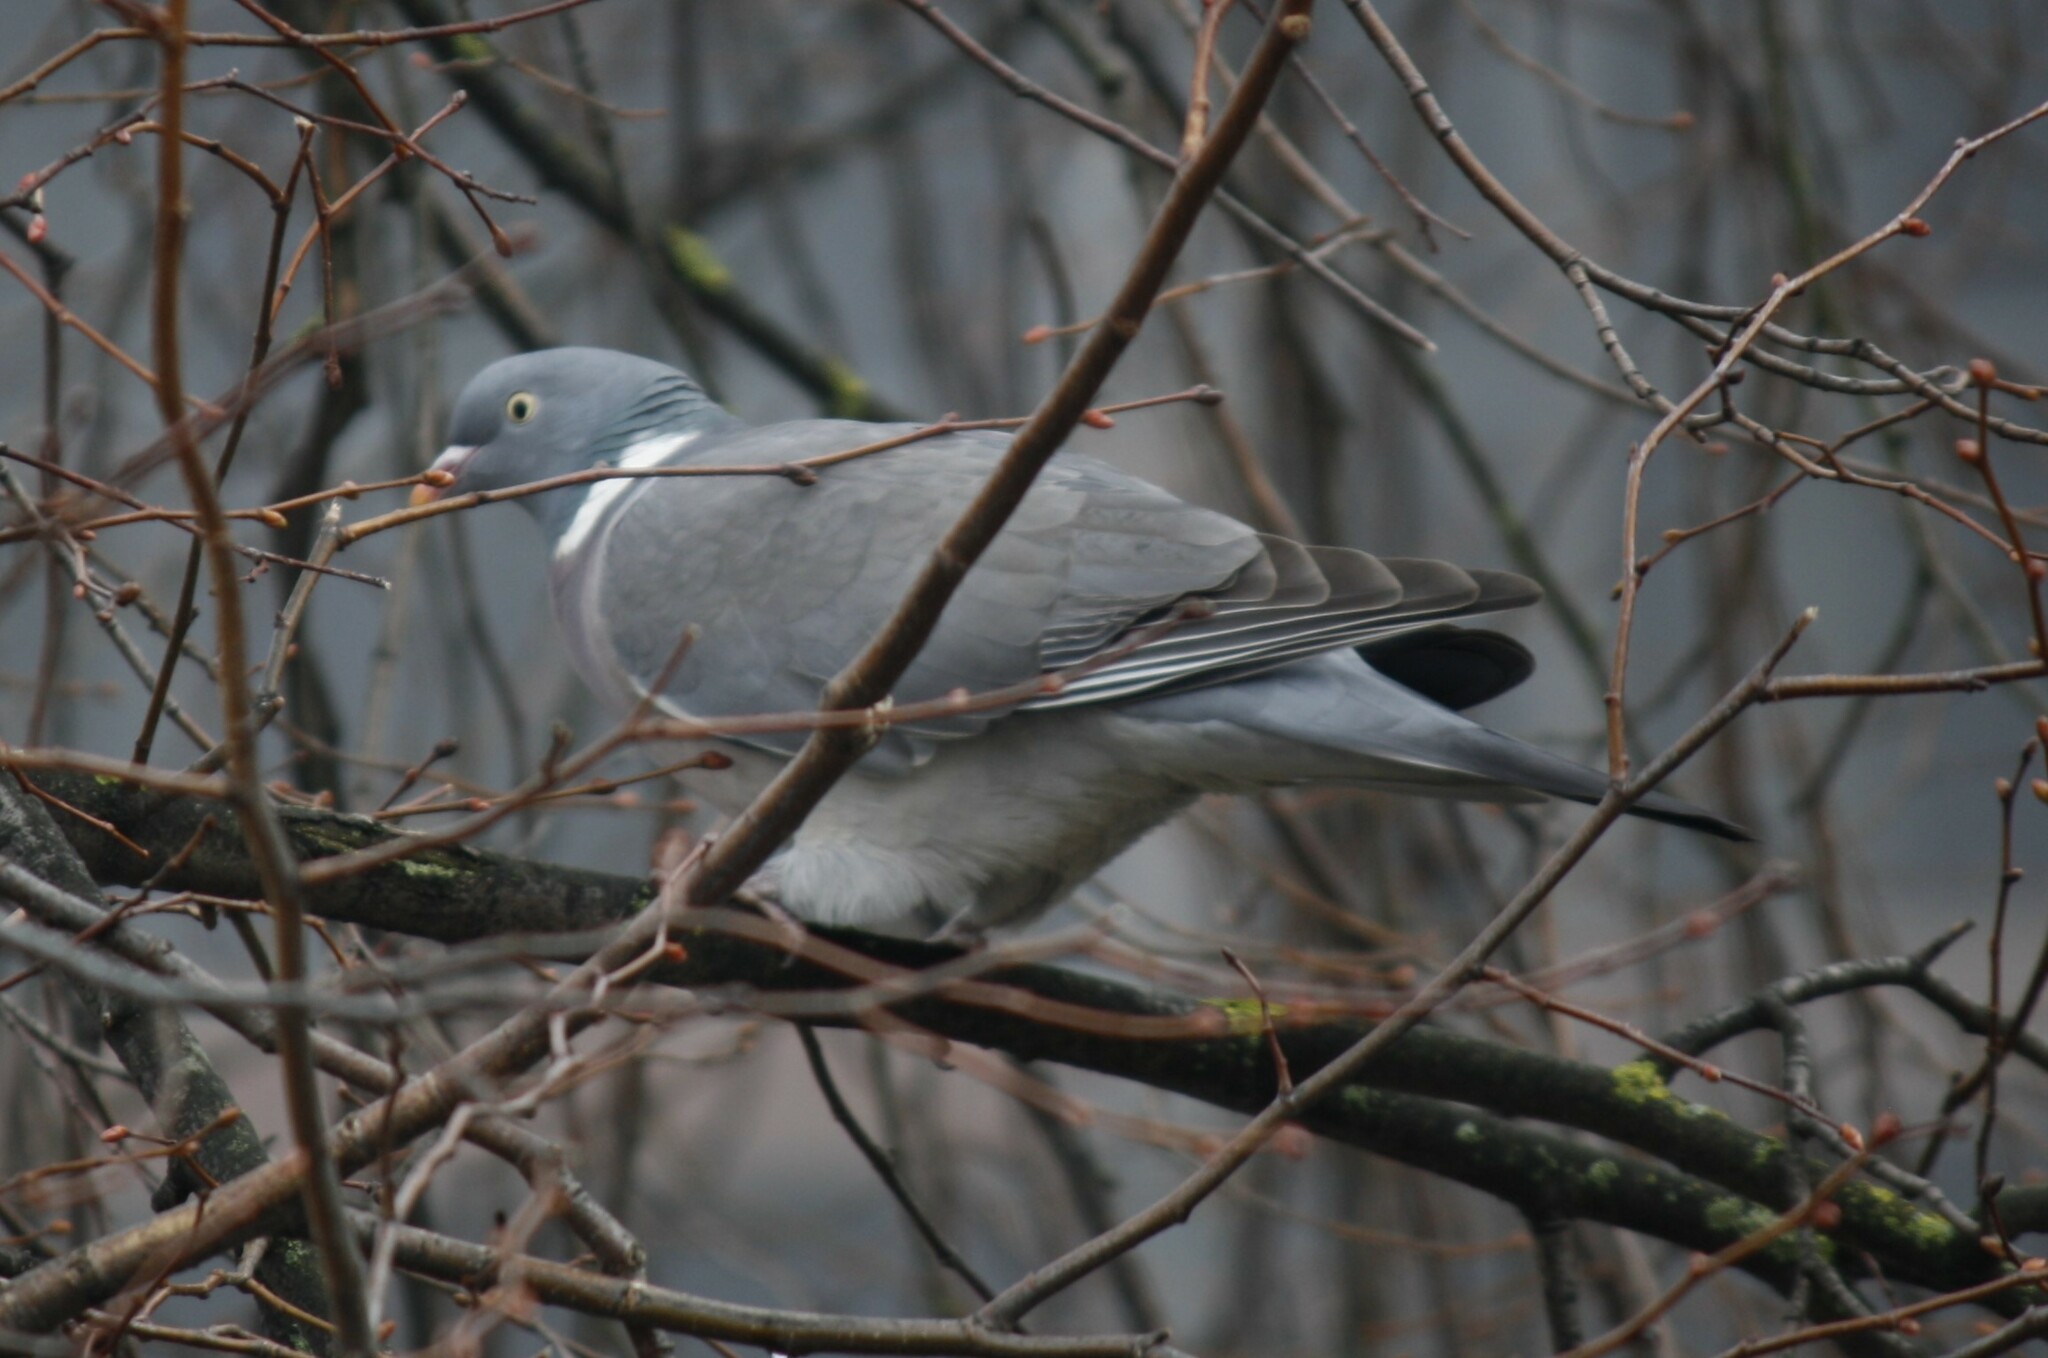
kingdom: Animalia
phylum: Chordata
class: Aves
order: Columbiformes
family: Columbidae
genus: Columba
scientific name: Columba palumbus
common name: Common wood pigeon
